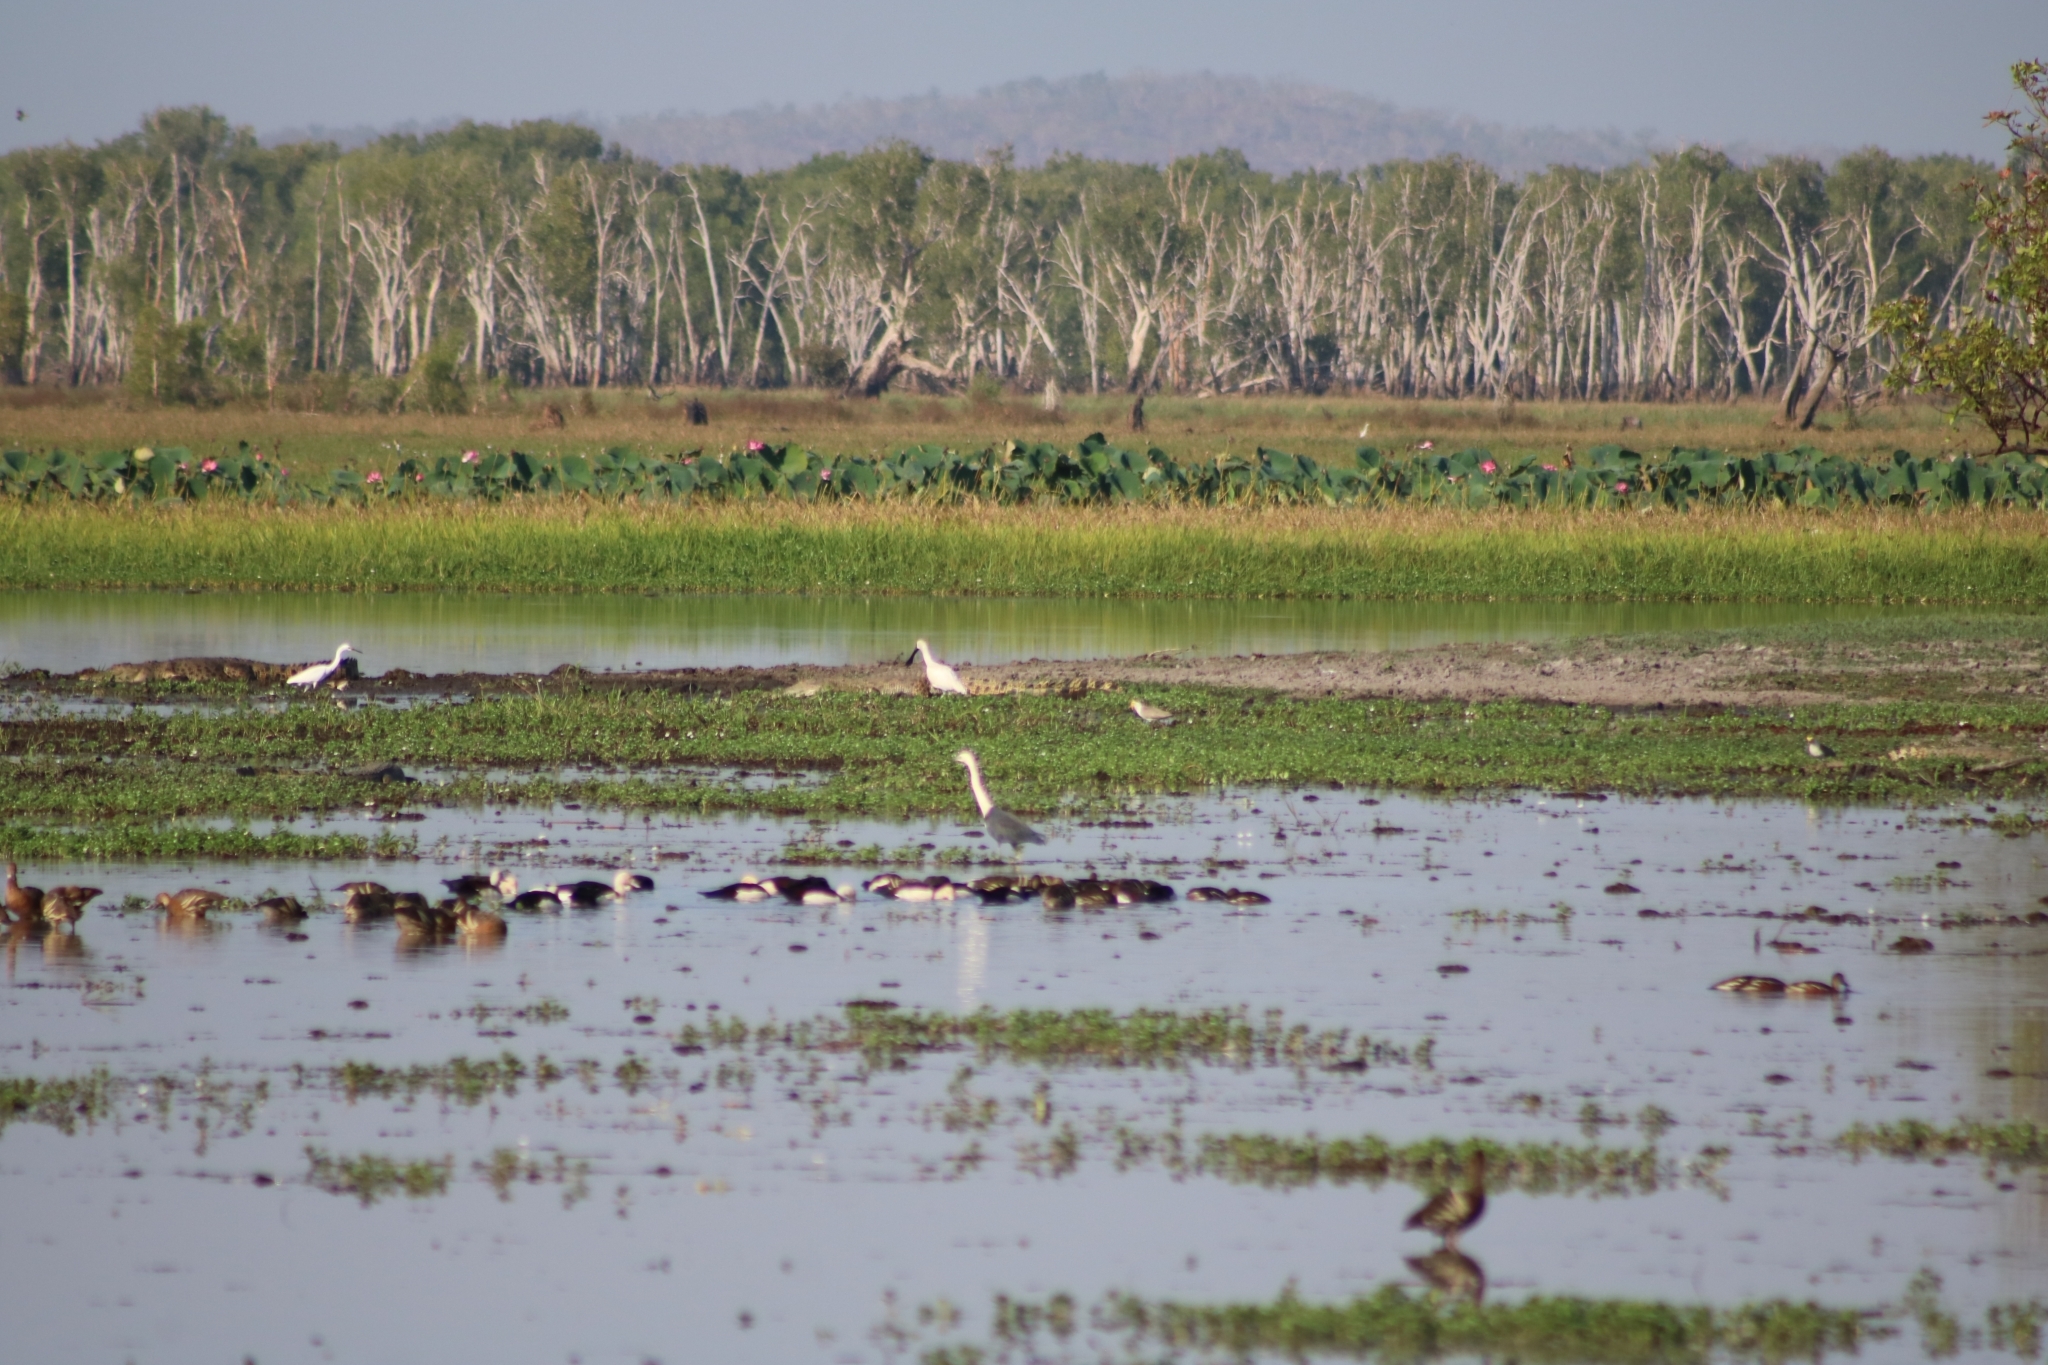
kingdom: Animalia
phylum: Chordata
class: Aves
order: Pelecaniformes
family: Threskiornithidae
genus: Platalea
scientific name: Platalea regia
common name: Royal spoonbill
